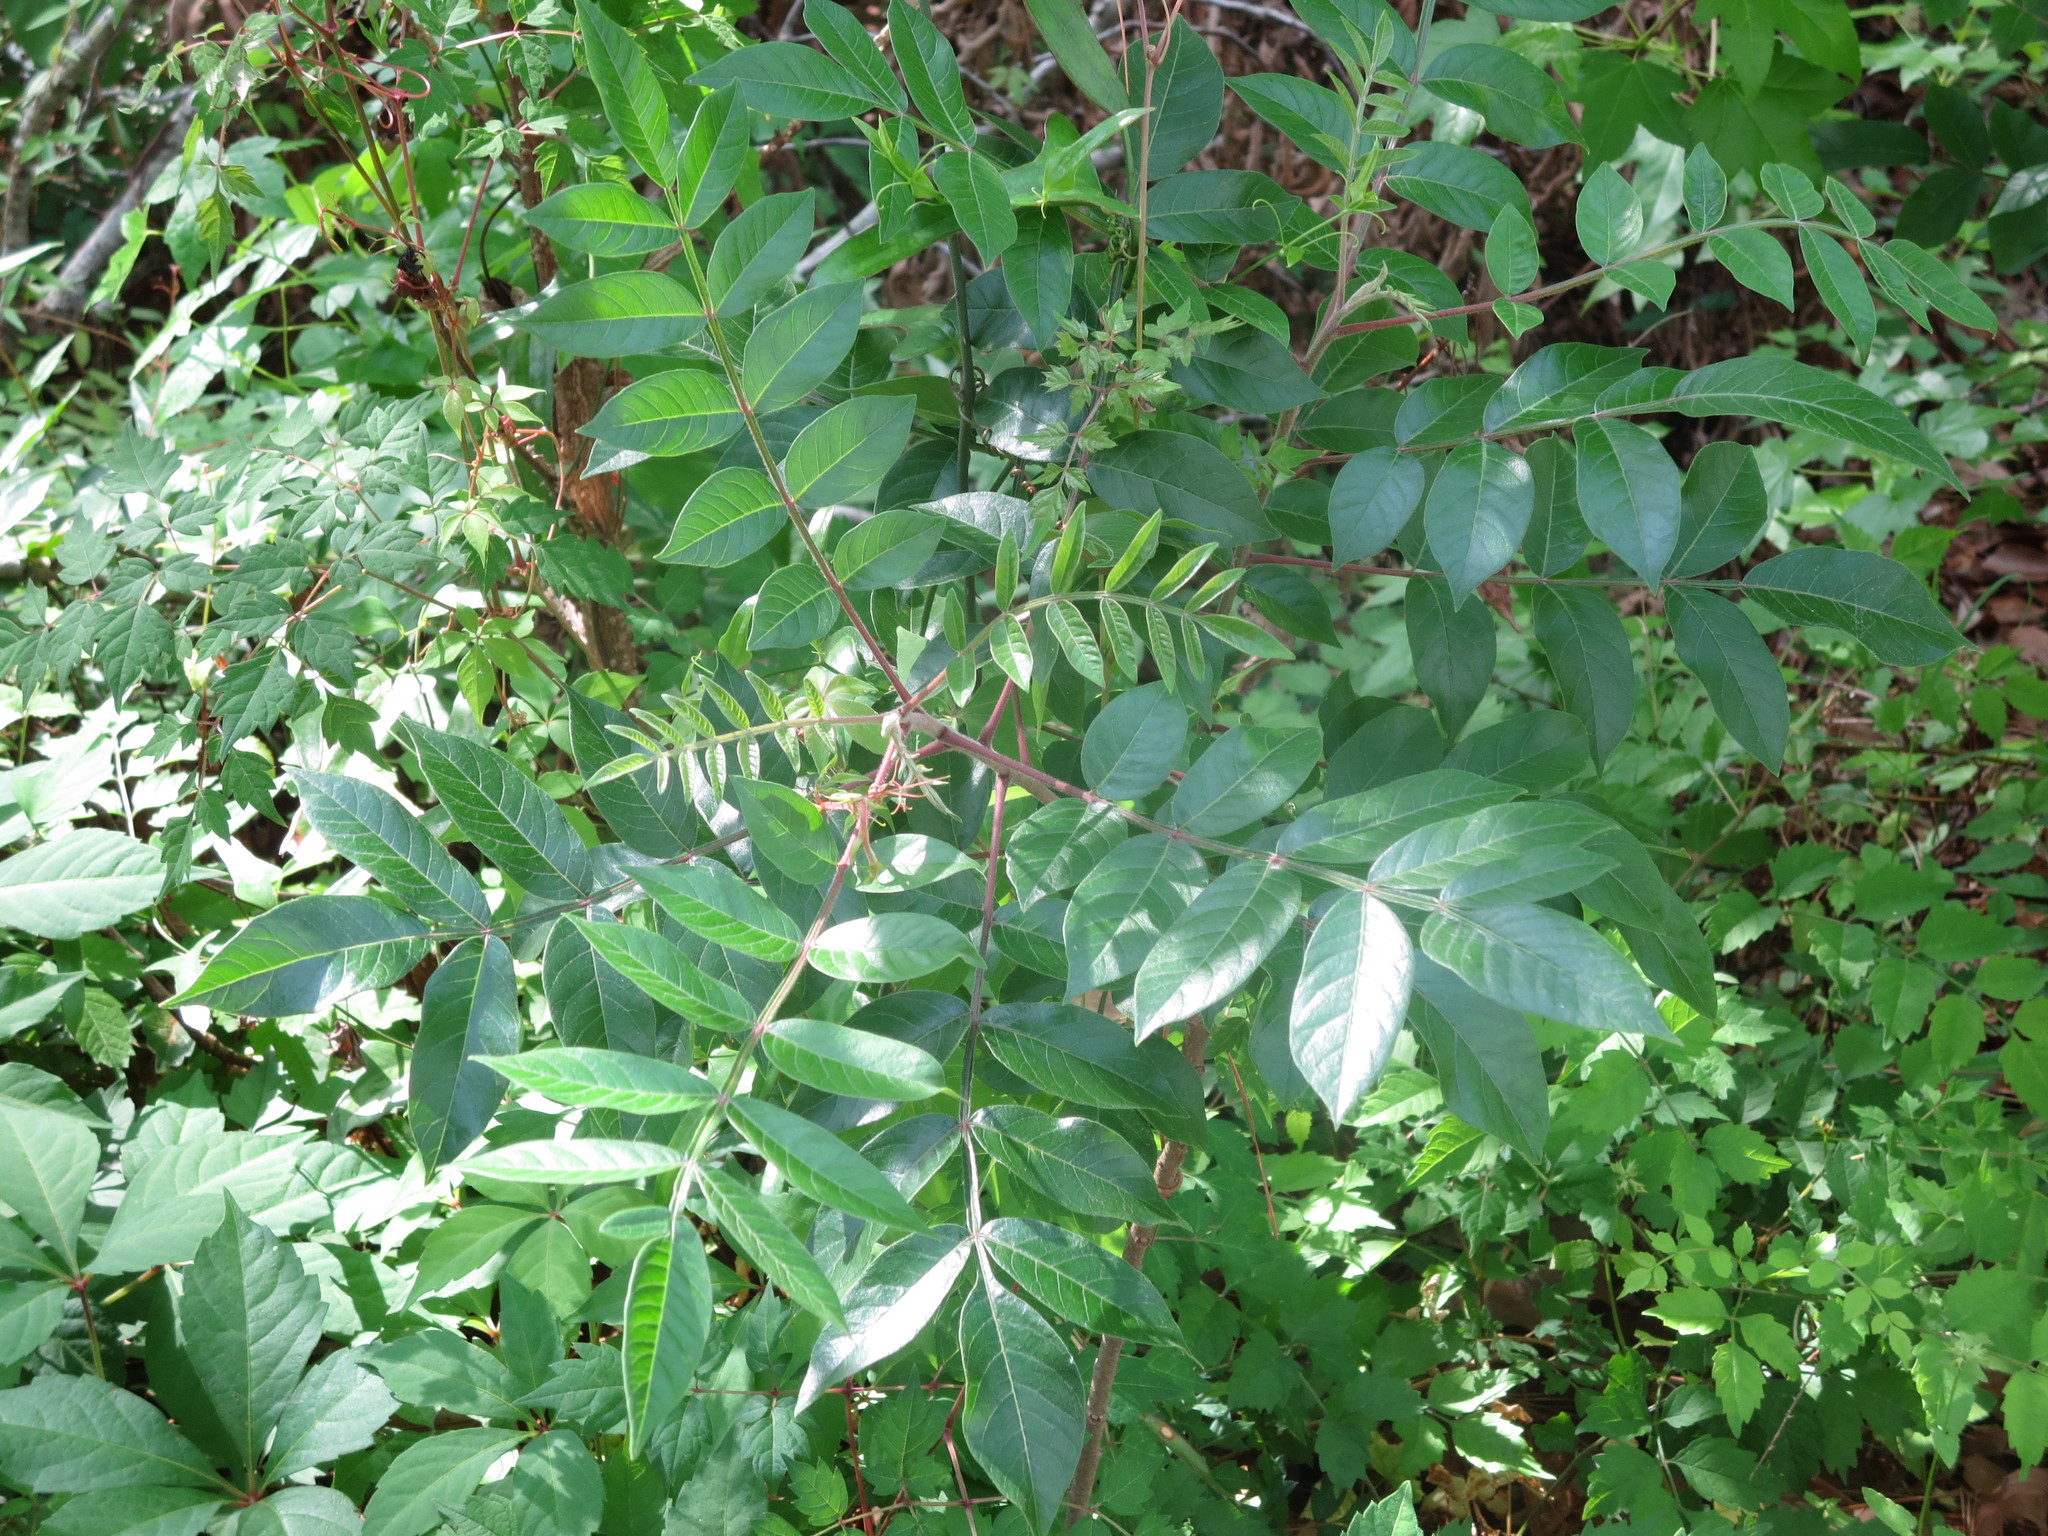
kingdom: Plantae
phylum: Tracheophyta
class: Magnoliopsida
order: Sapindales
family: Anacardiaceae
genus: Rhus
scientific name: Rhus copallina
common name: Shining sumac
